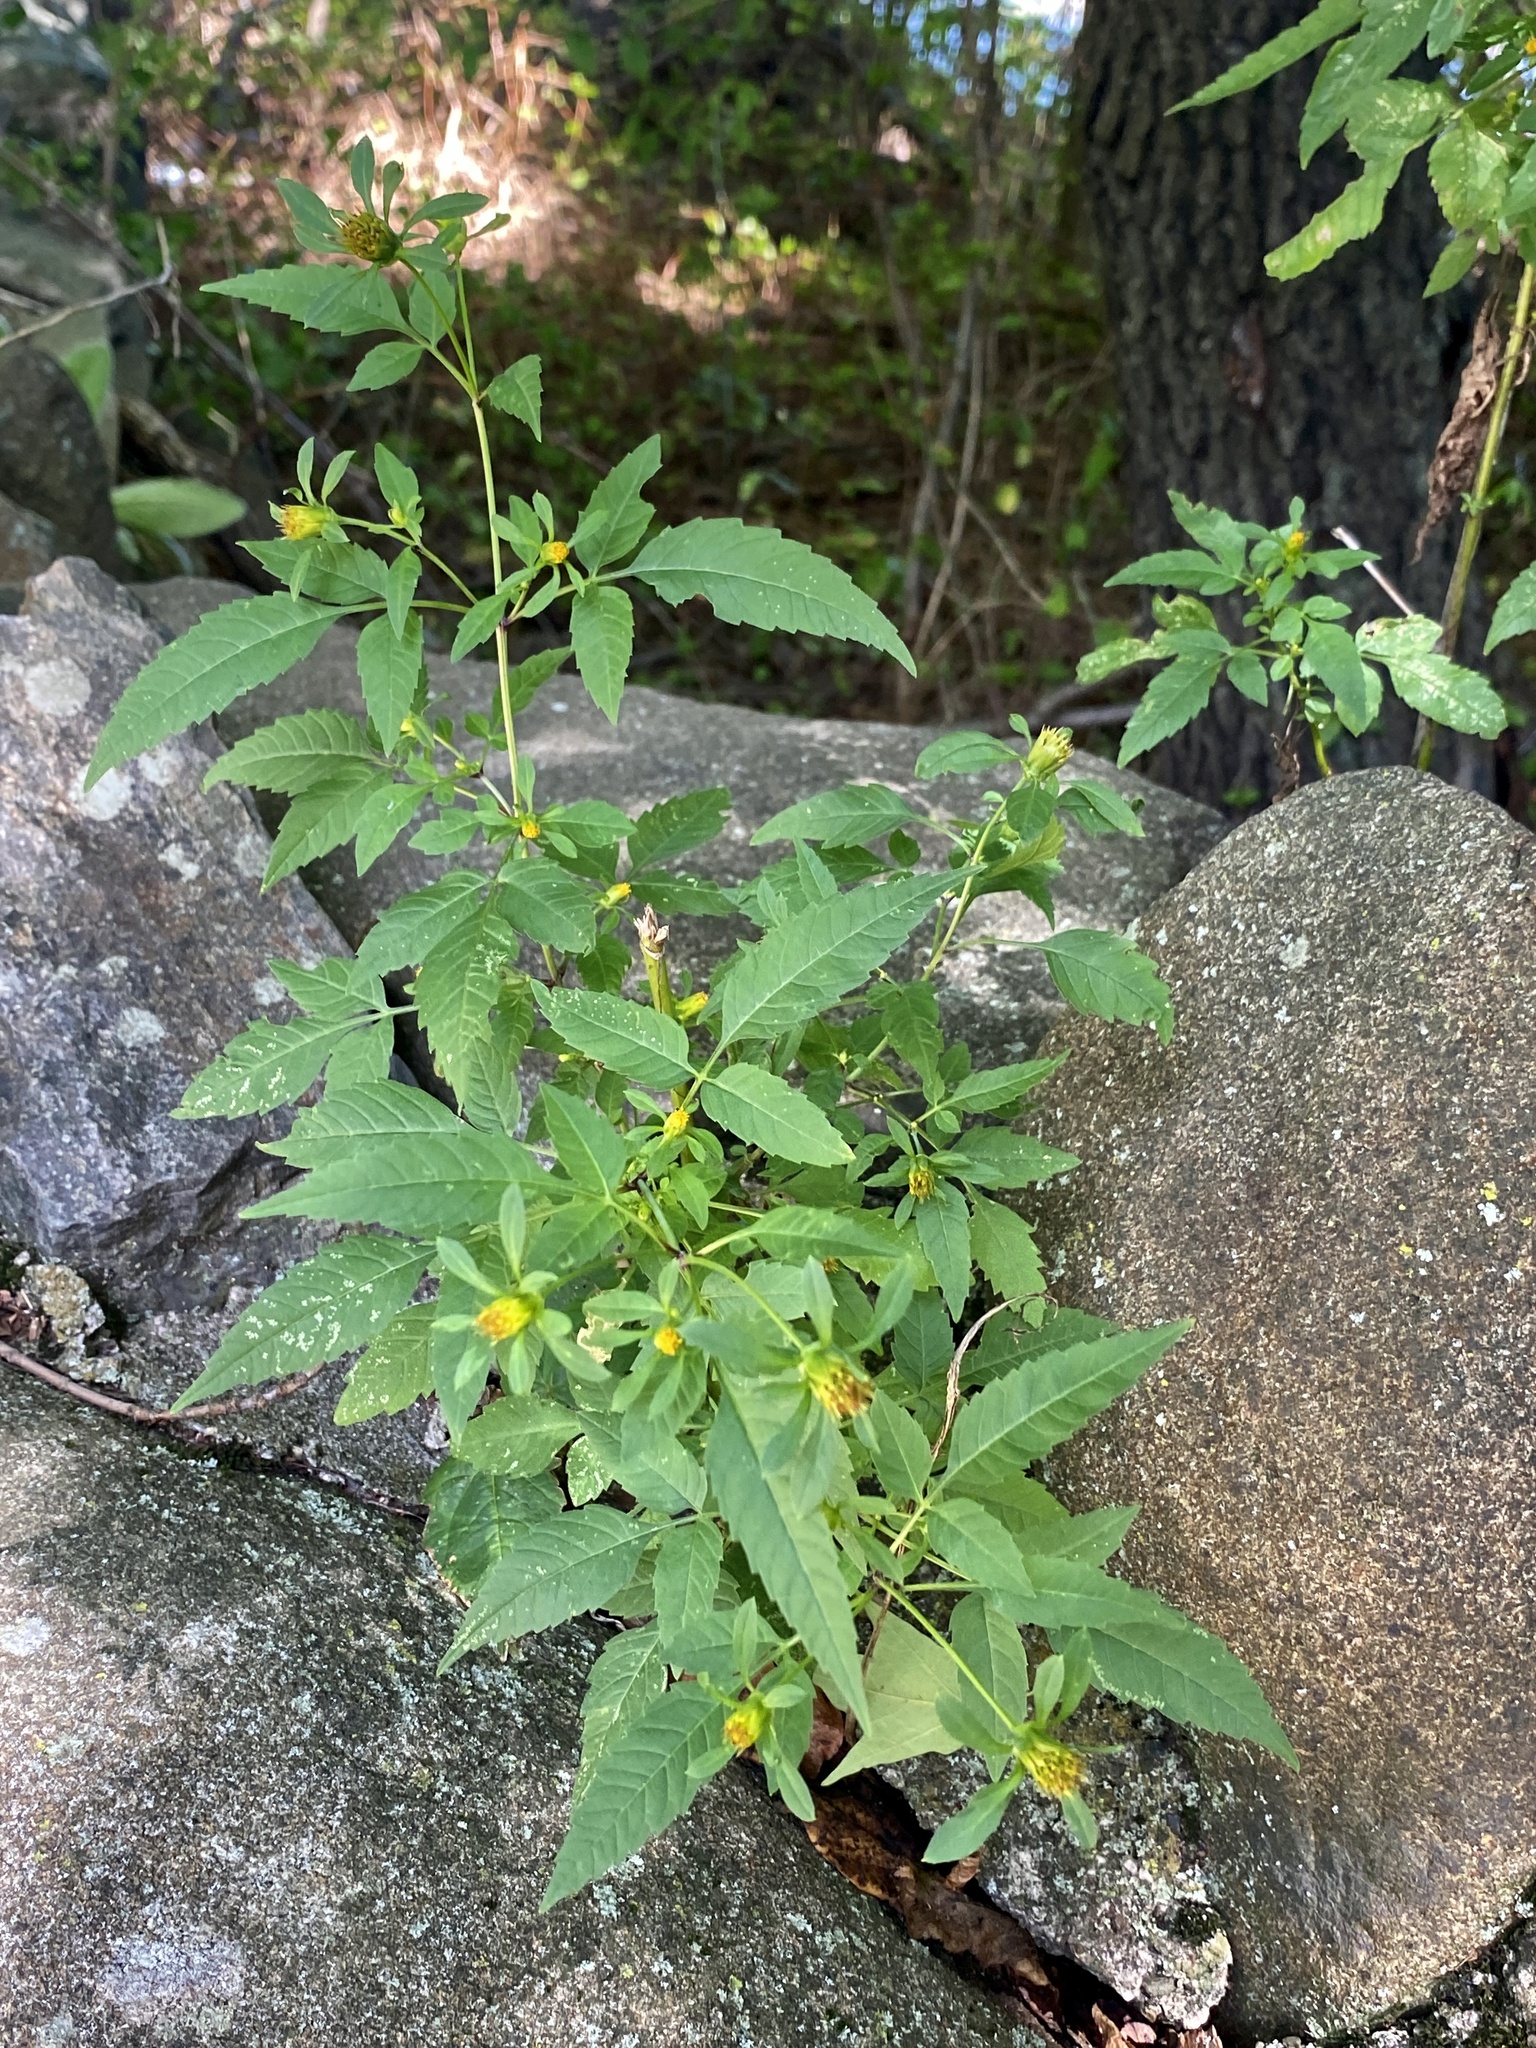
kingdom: Plantae
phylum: Tracheophyta
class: Magnoliopsida
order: Asterales
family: Asteraceae
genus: Bidens
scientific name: Bidens frondosa
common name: Beggarticks
